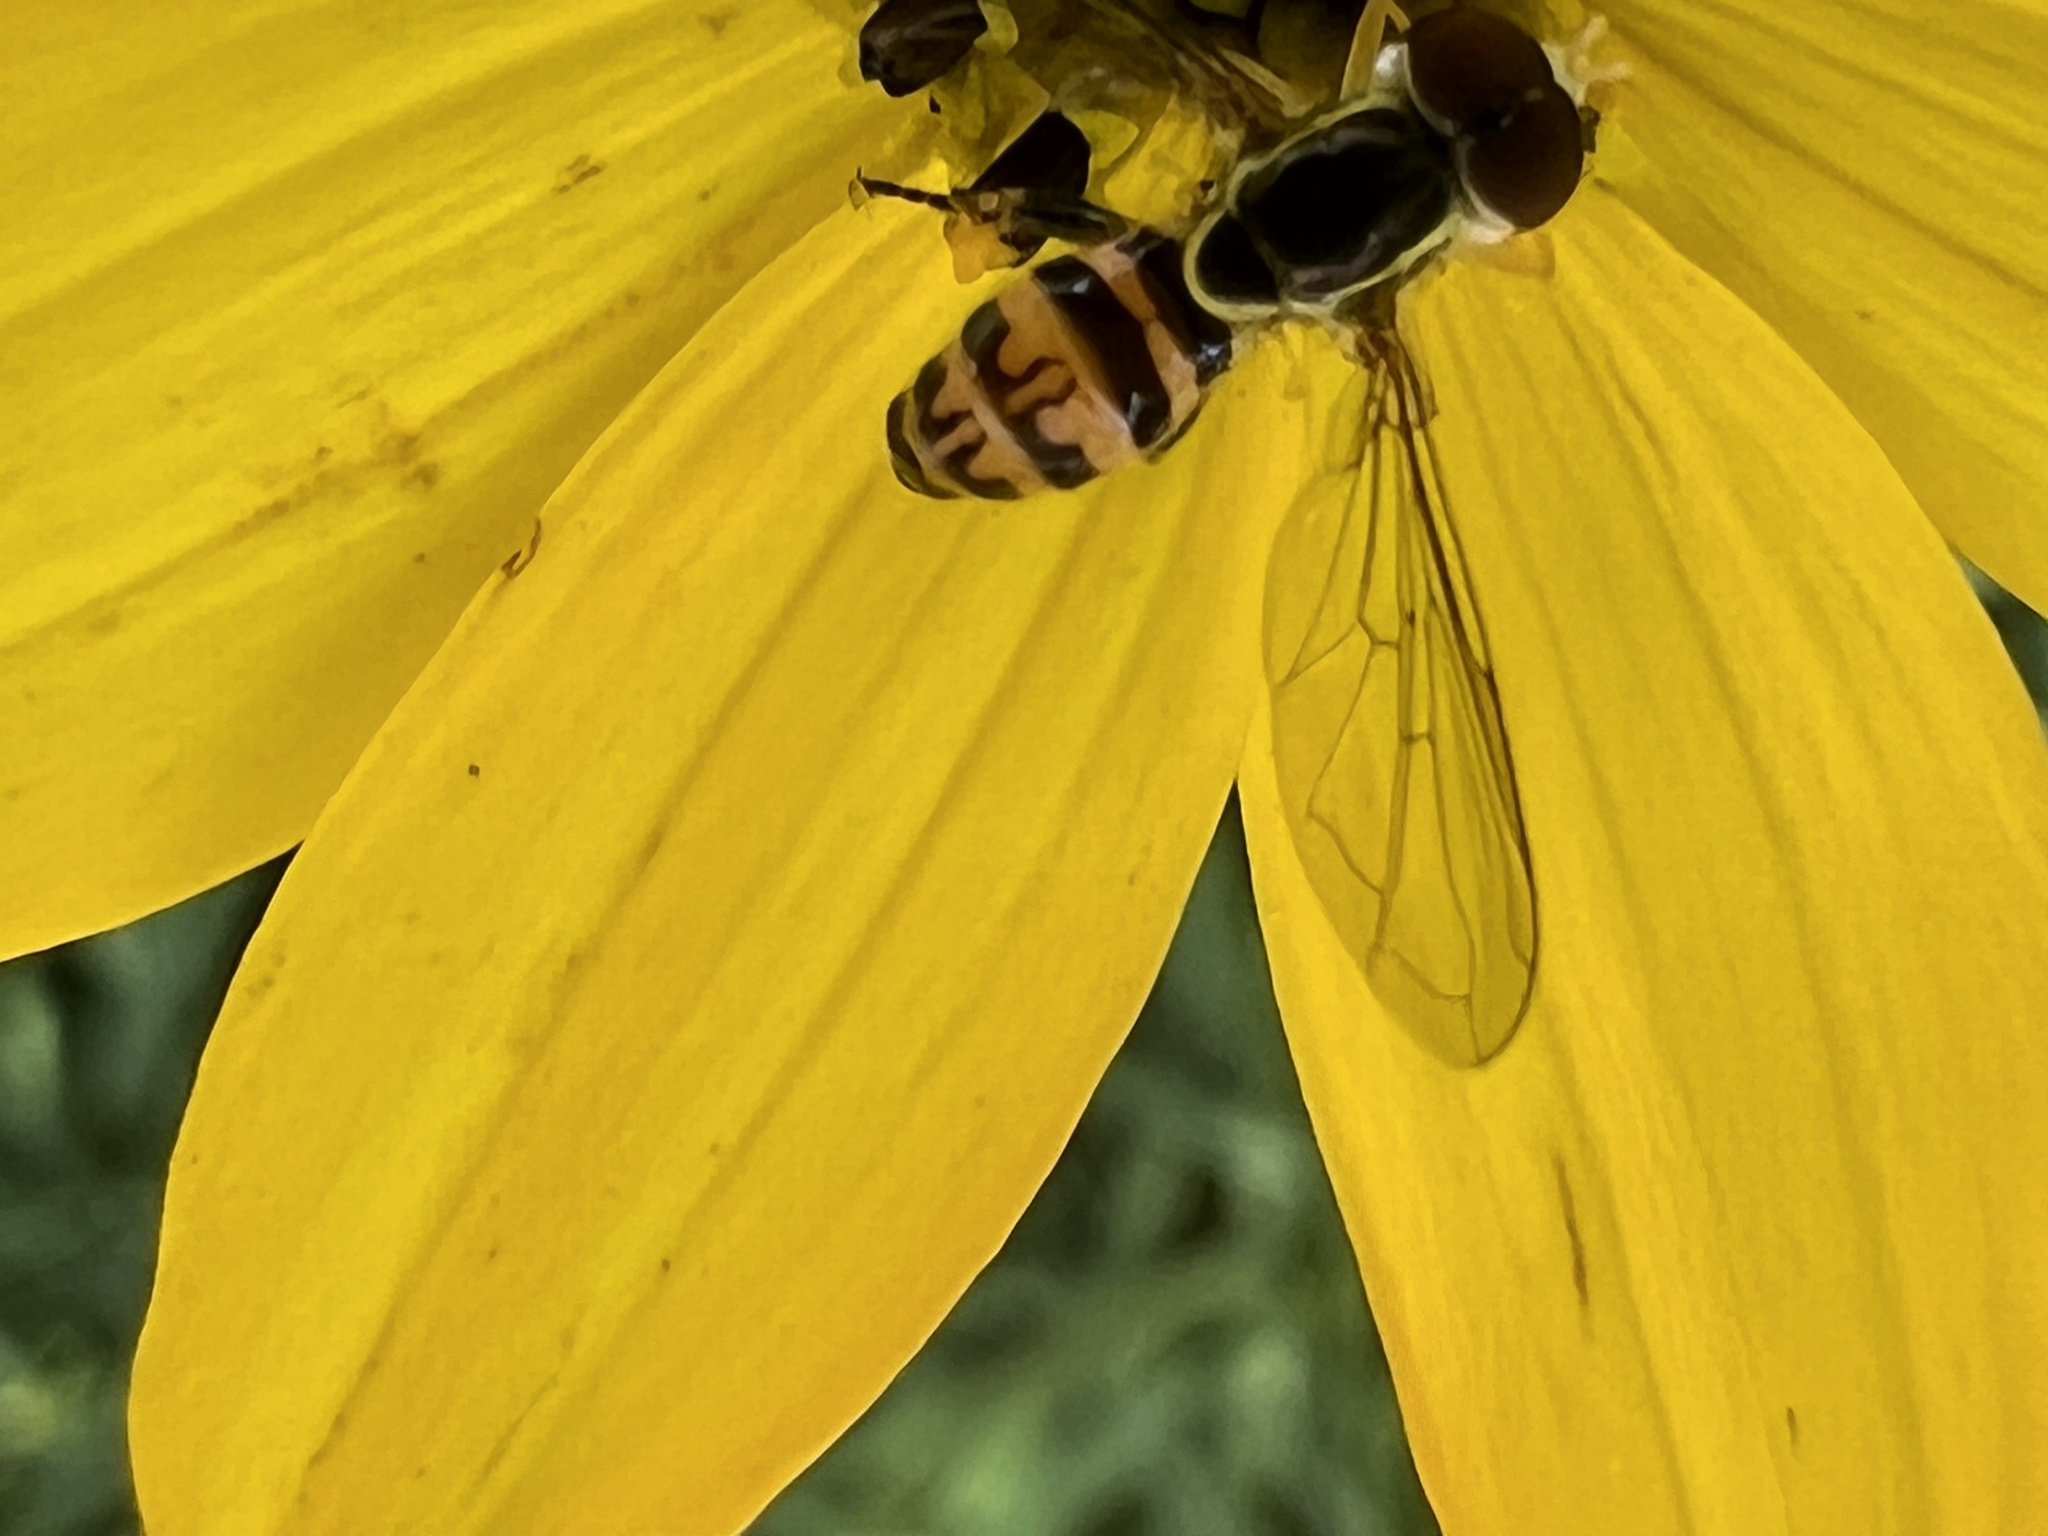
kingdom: Animalia
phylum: Arthropoda
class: Insecta
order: Diptera
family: Syrphidae
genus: Toxomerus
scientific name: Toxomerus geminatus
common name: Eastern calligrapher
